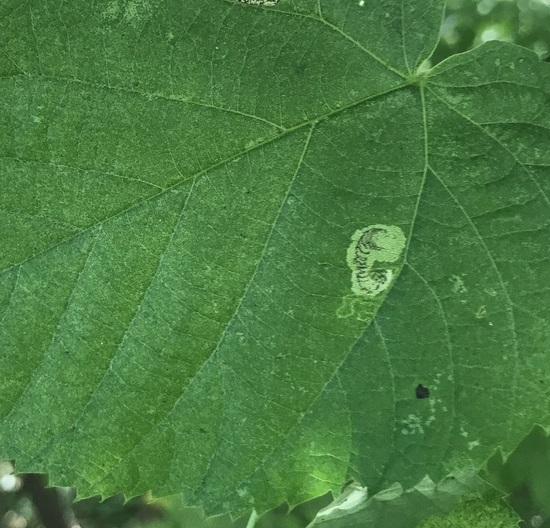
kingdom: Animalia
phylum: Arthropoda
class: Insecta
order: Lepidoptera
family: Nepticulidae
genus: Stigmella
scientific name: Stigmella argentifasciella
